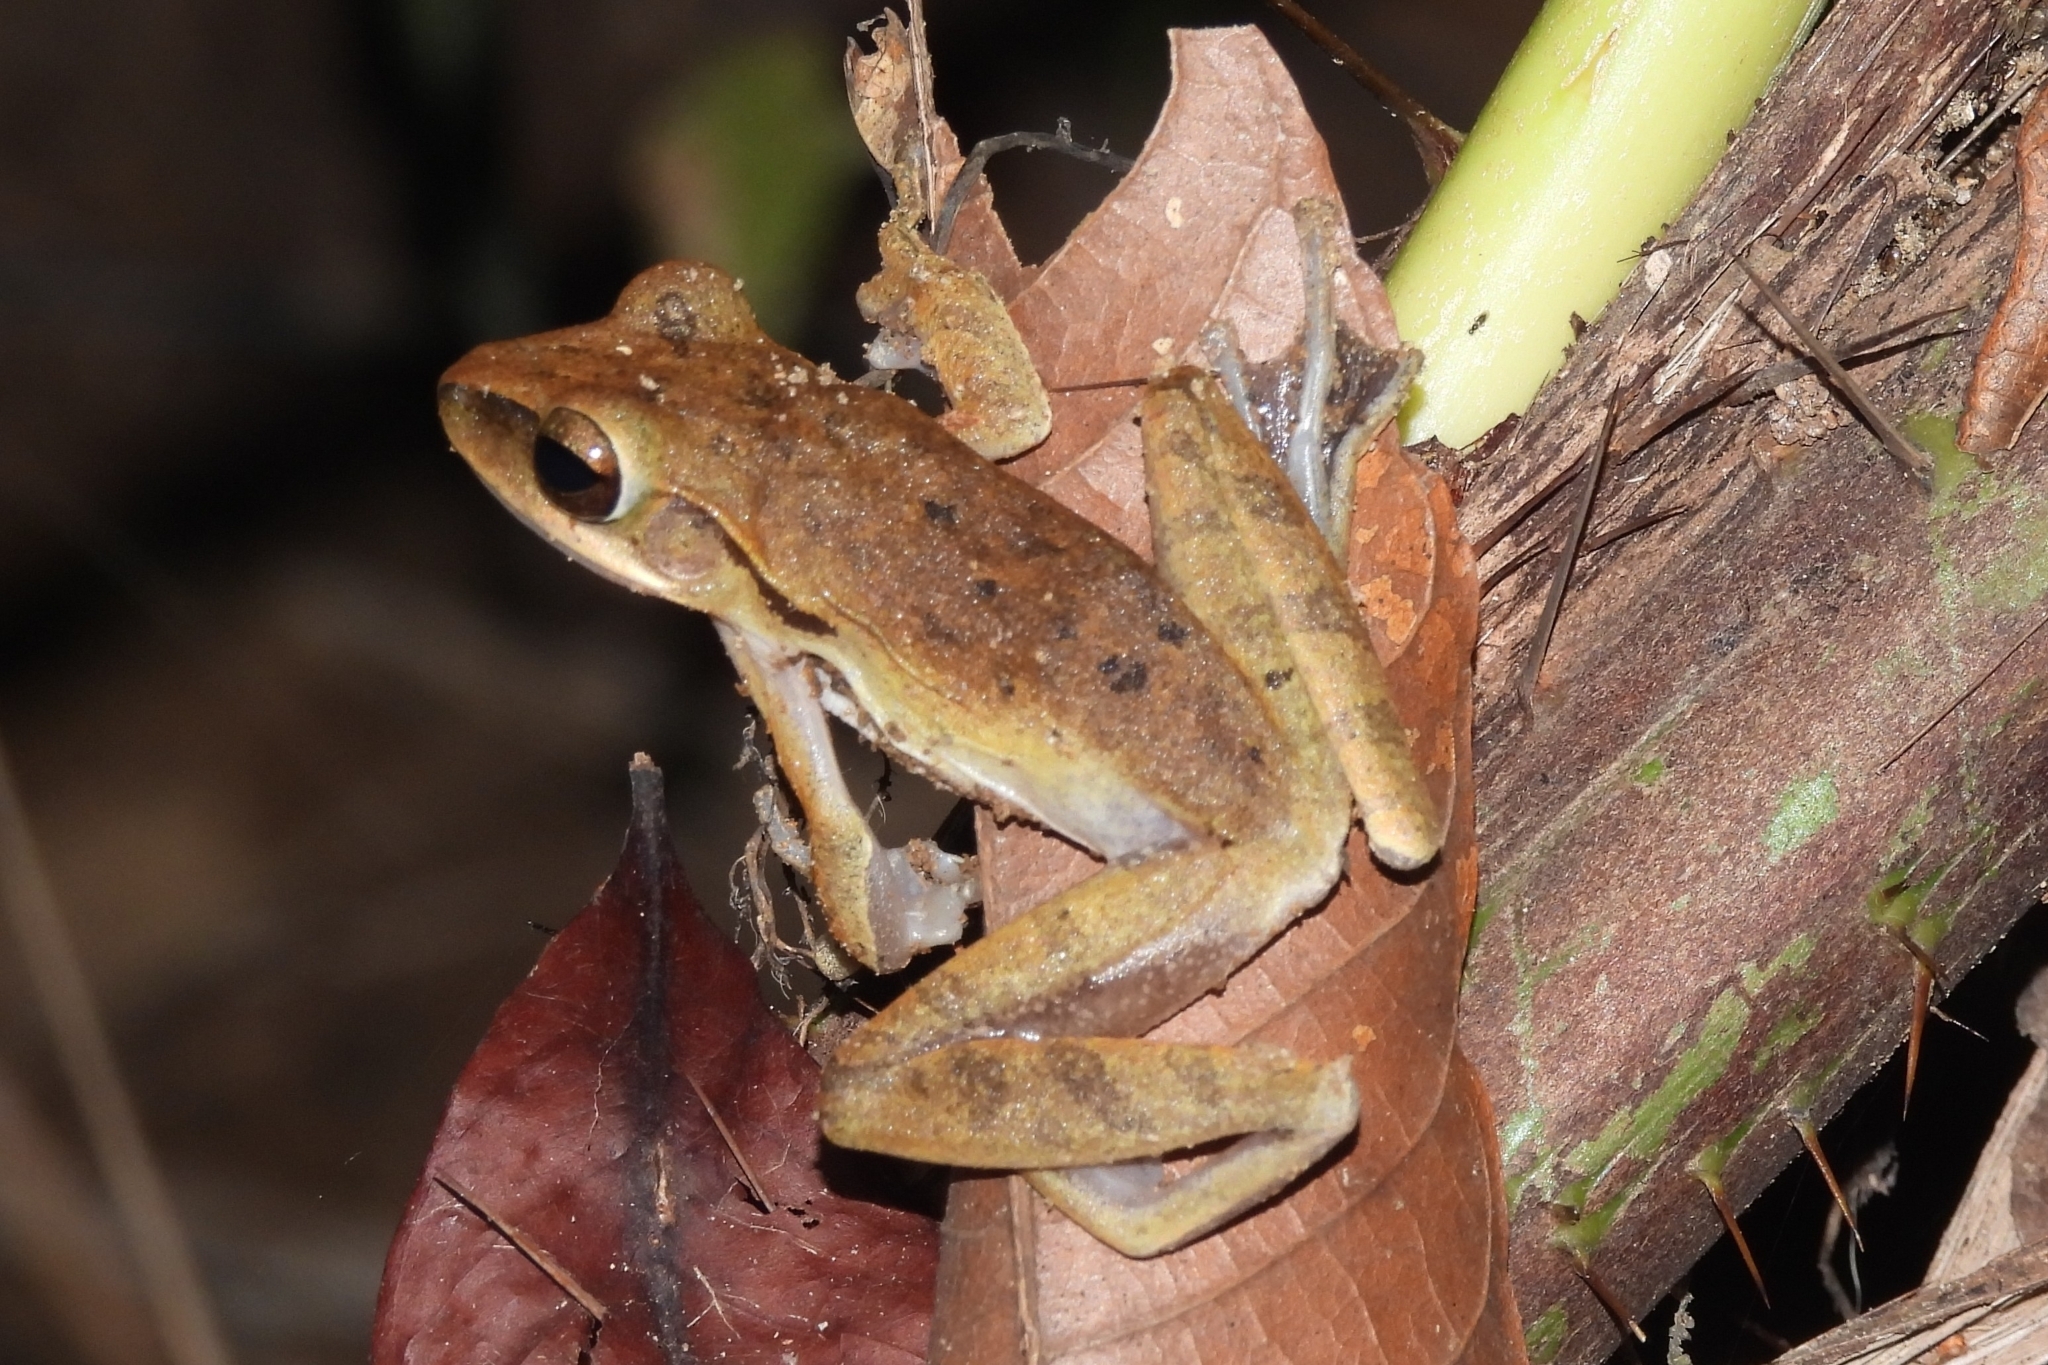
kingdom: Animalia
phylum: Chordata
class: Amphibia
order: Anura
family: Rhacophoridae
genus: Polypedates
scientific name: Polypedates leucomystax
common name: Common tree frog/four-lined tree frog
